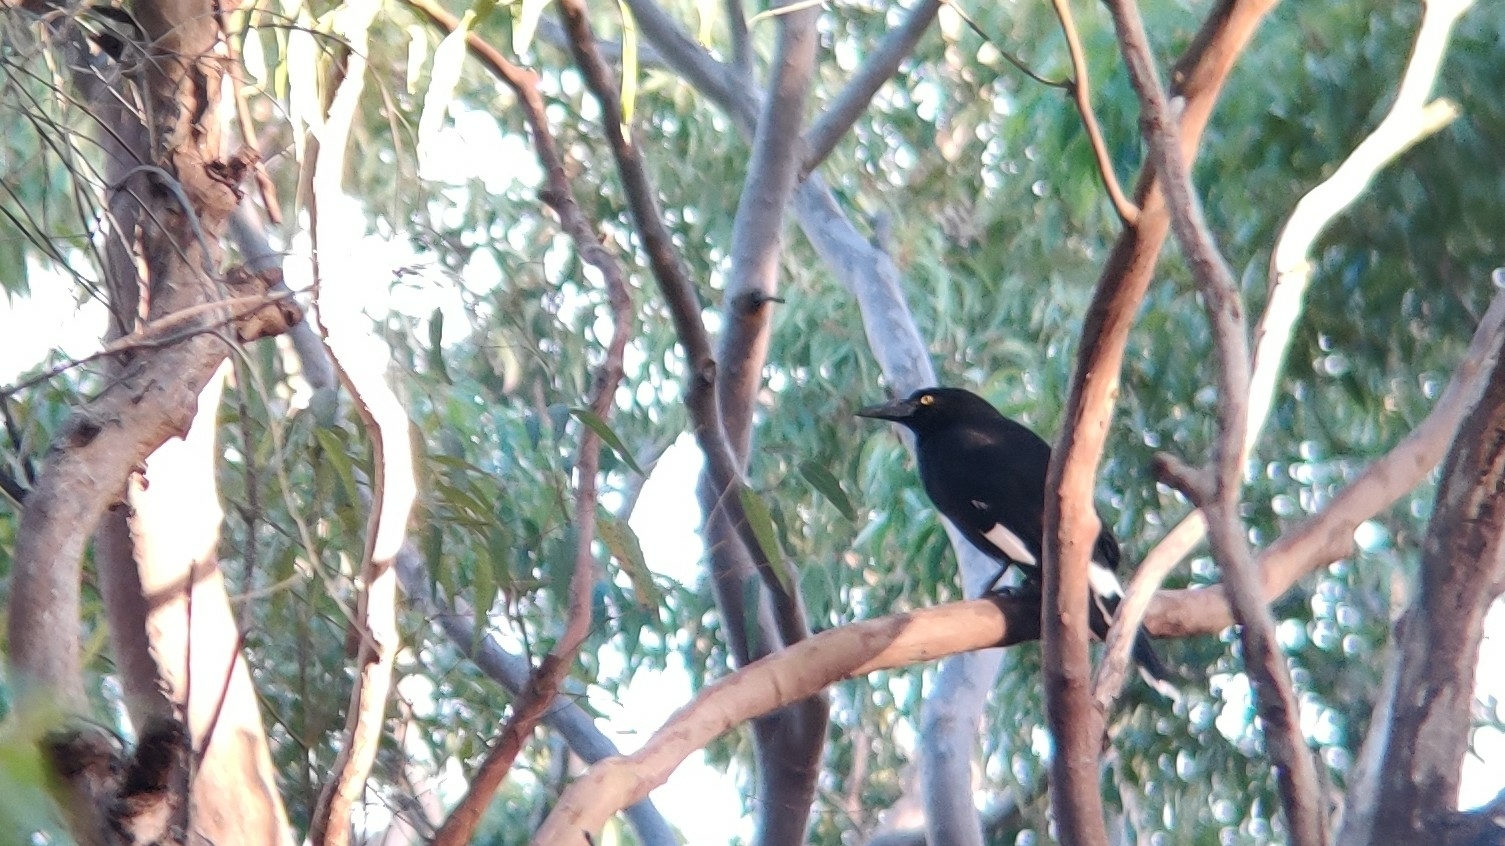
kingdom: Animalia
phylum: Chordata
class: Aves
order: Passeriformes
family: Cracticidae
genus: Strepera
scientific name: Strepera graculina
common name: Pied currawong
